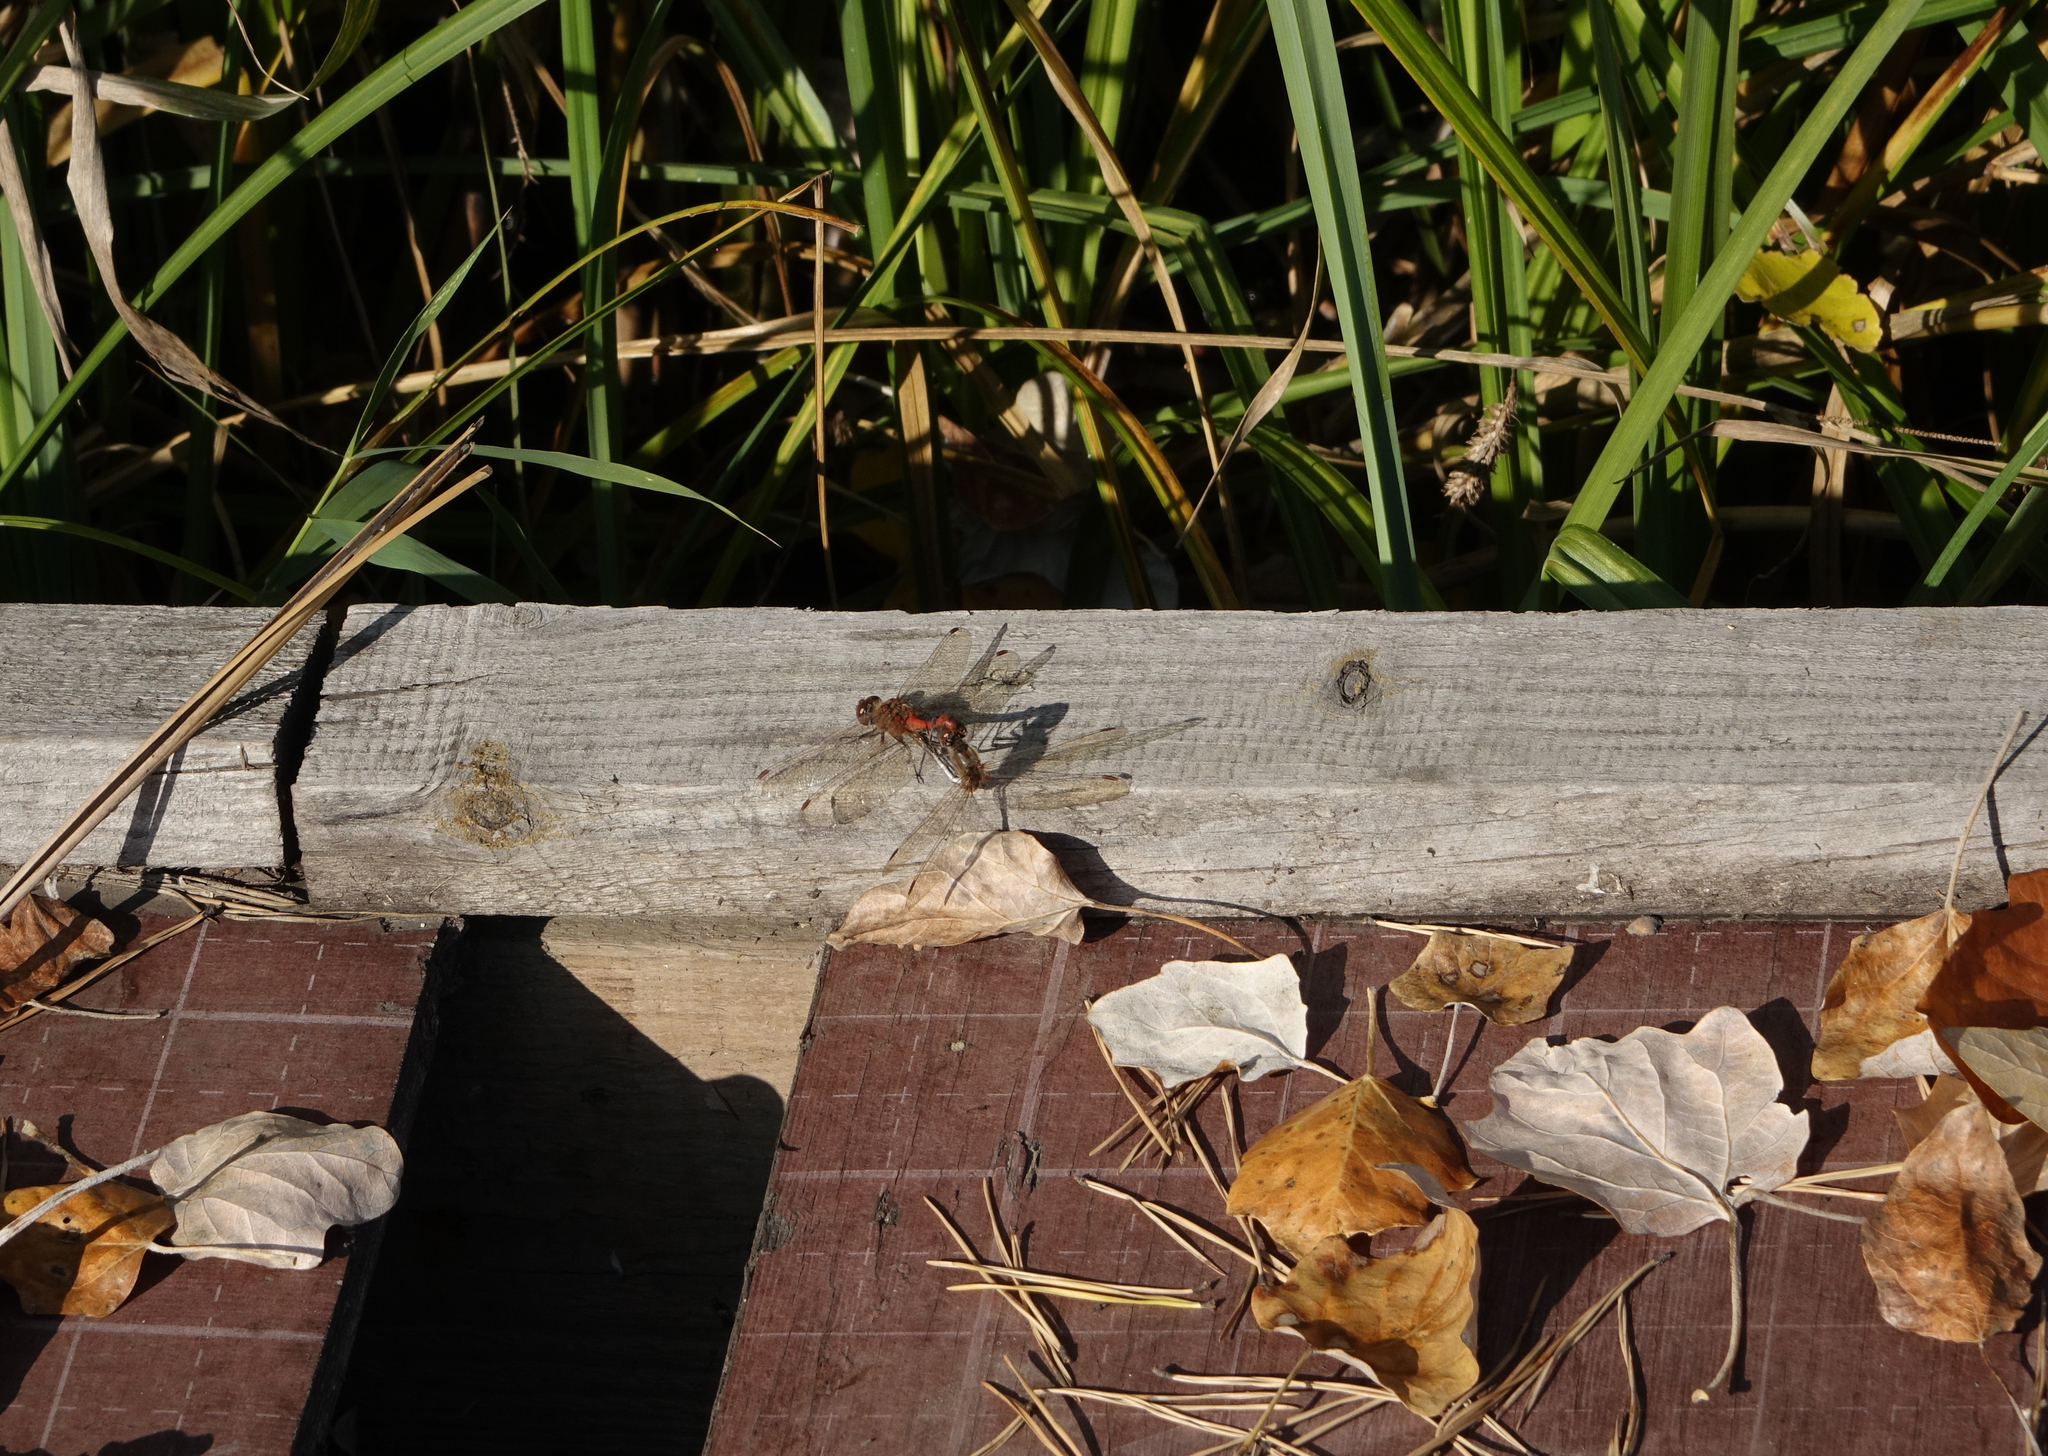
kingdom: Animalia
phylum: Arthropoda
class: Insecta
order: Odonata
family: Libellulidae
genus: Sympetrum
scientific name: Sympetrum vulgatum
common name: Vagrant darter
